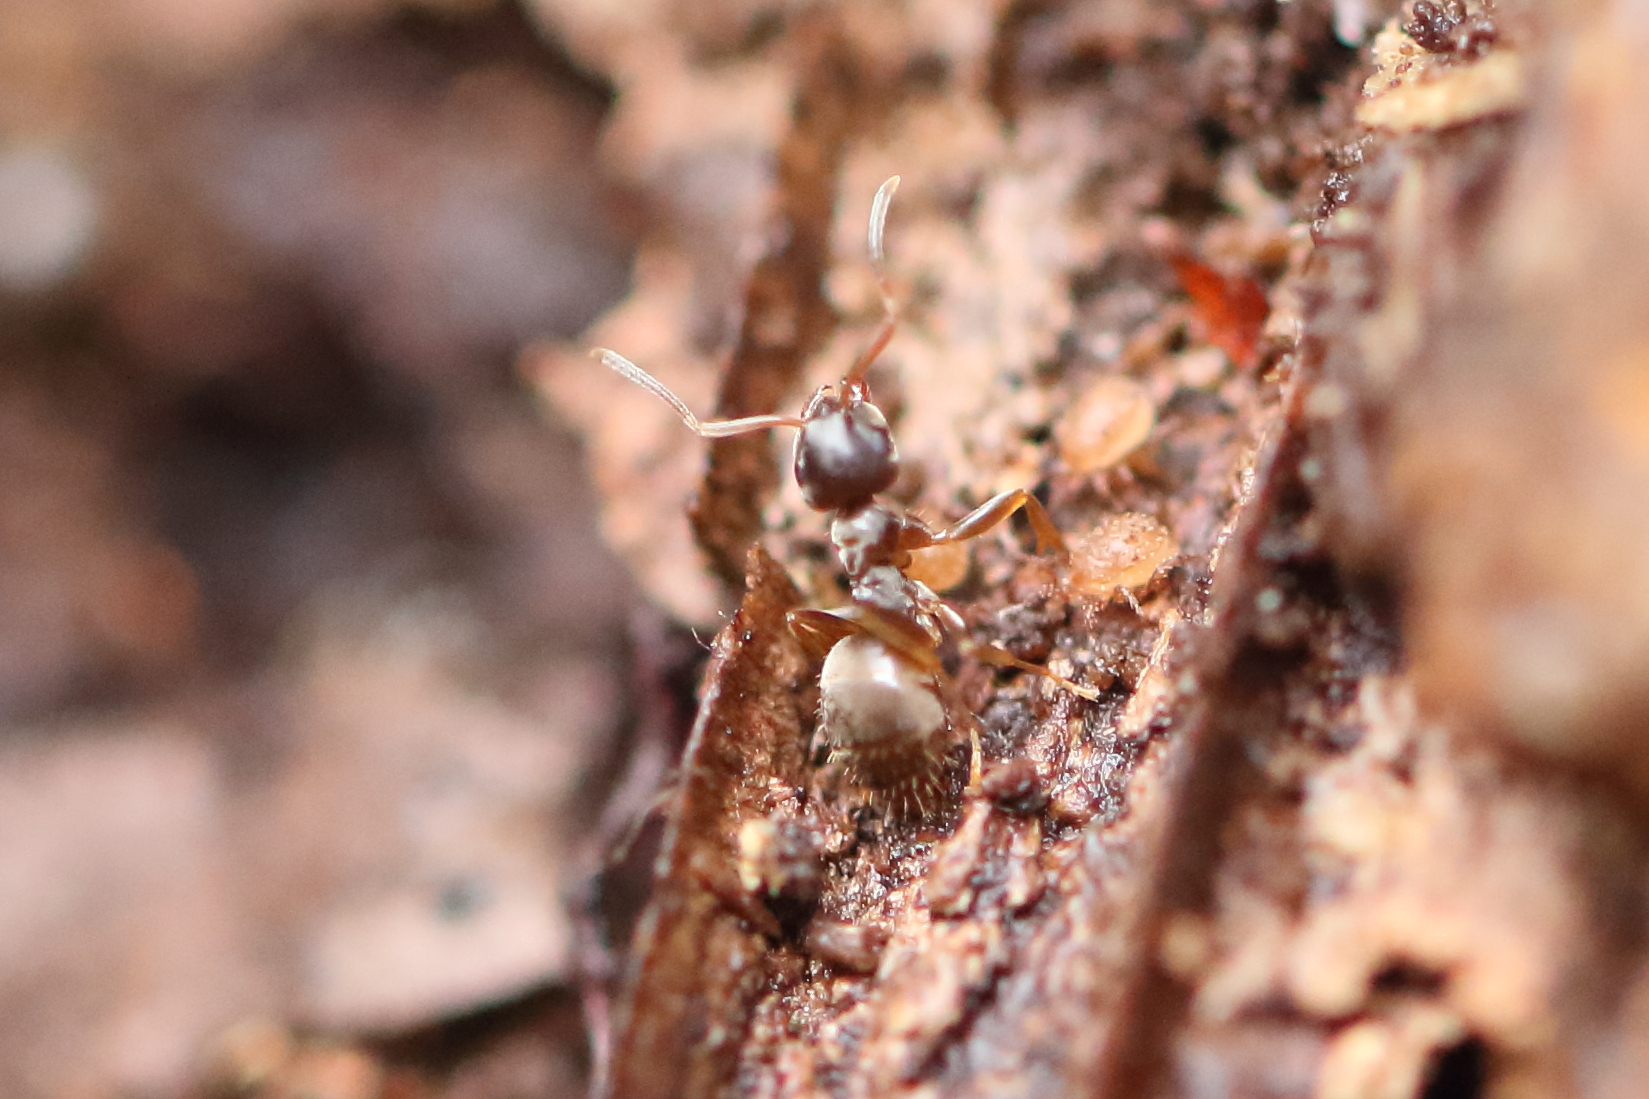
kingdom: Animalia
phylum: Arthropoda
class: Insecta
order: Hymenoptera
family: Formicidae
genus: Lasius
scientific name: Lasius americanus
